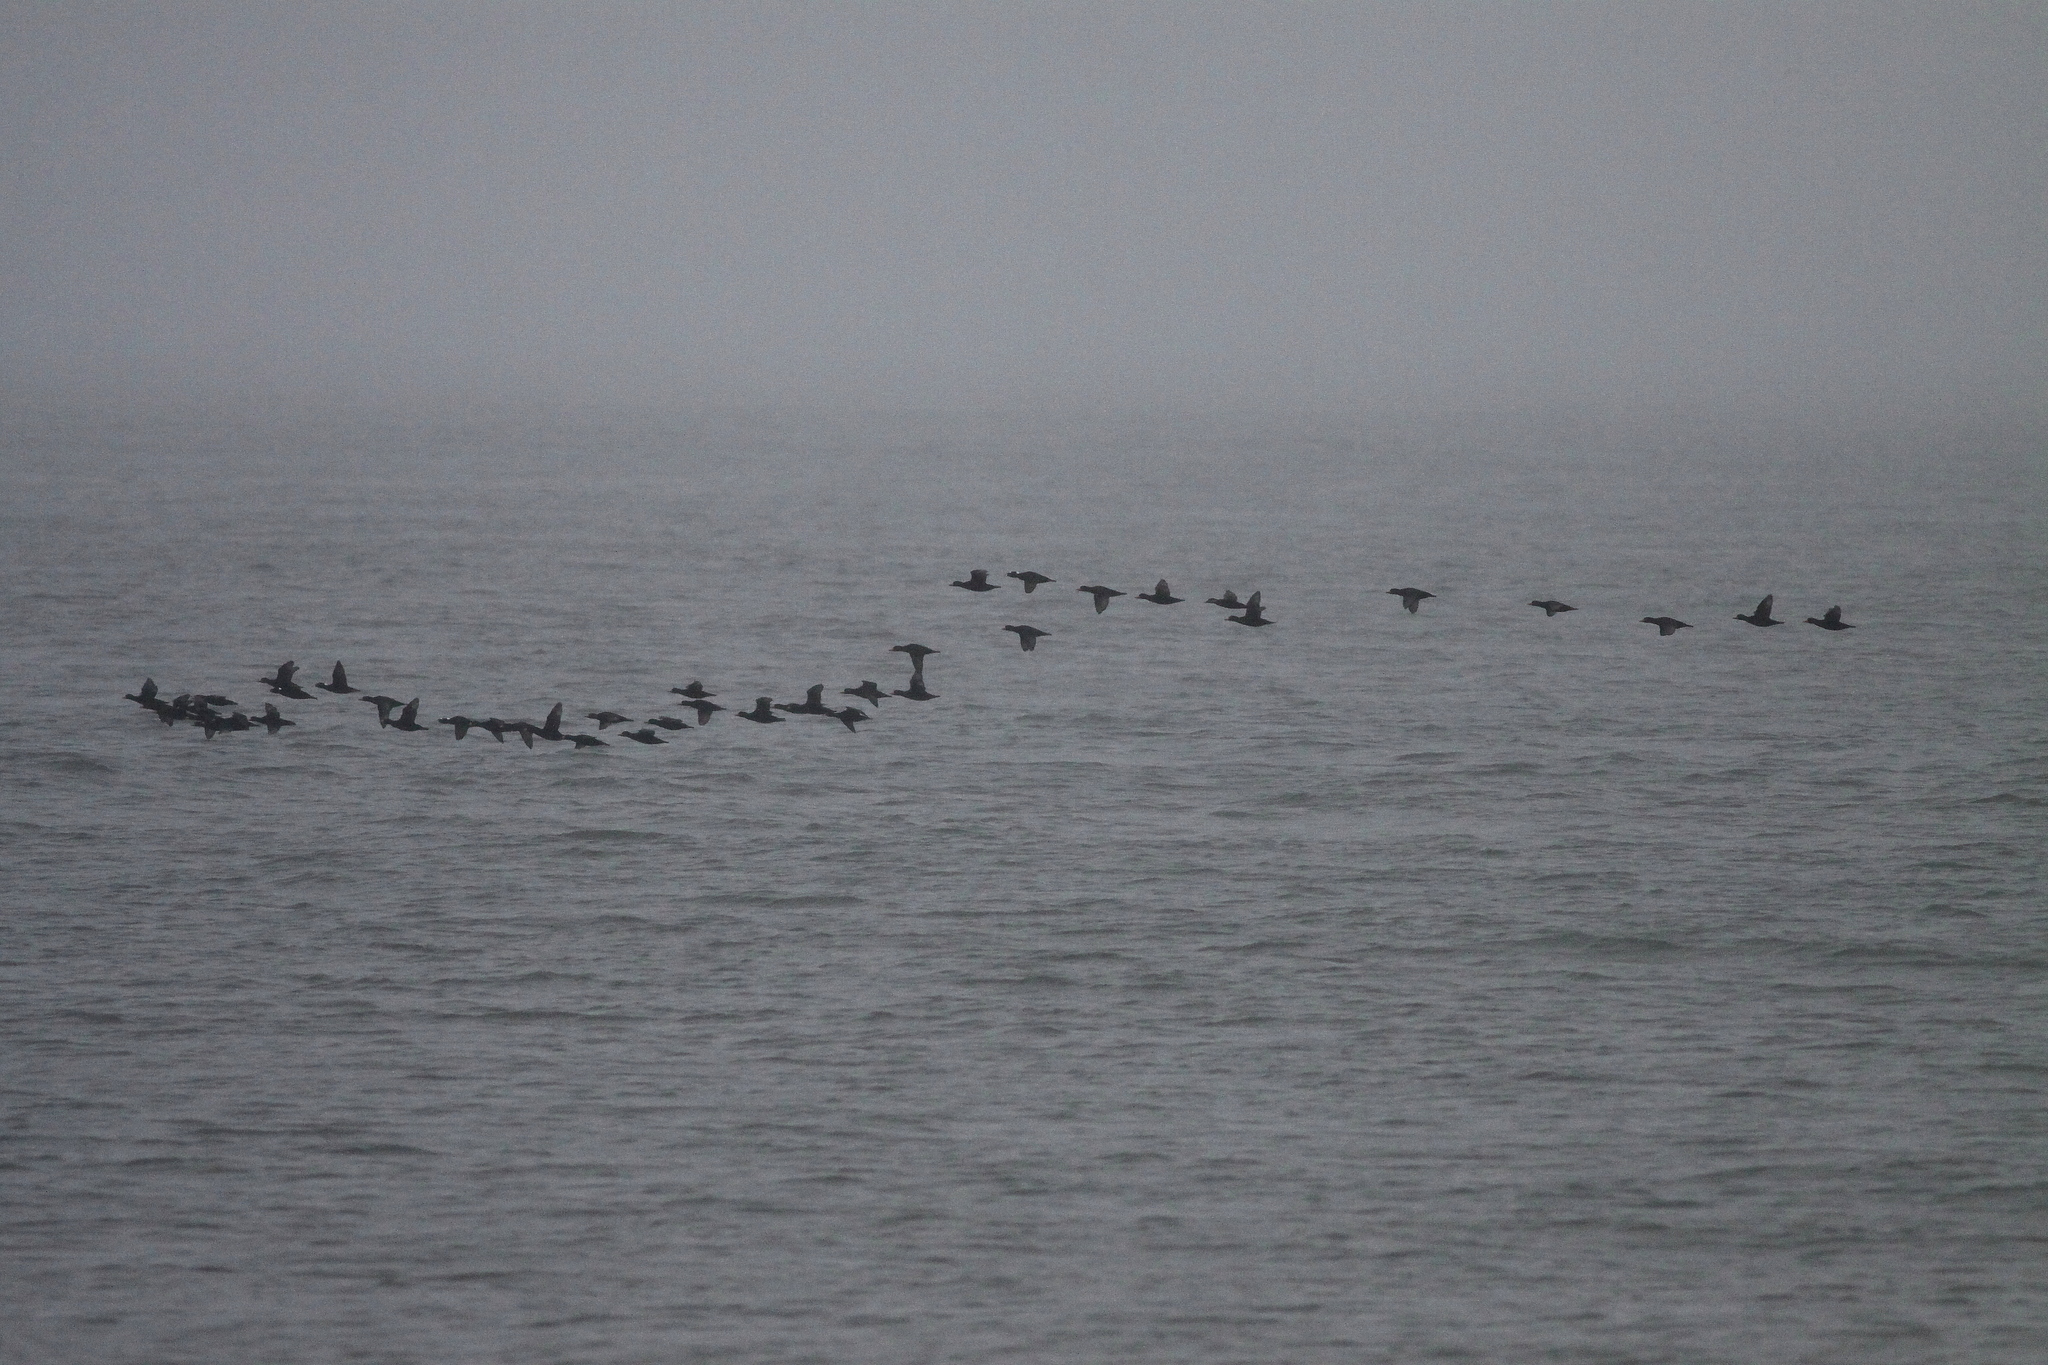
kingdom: Animalia
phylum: Chordata
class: Aves
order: Anseriformes
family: Anatidae
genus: Melanitta
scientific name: Melanitta perspicillata
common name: Surf scoter
